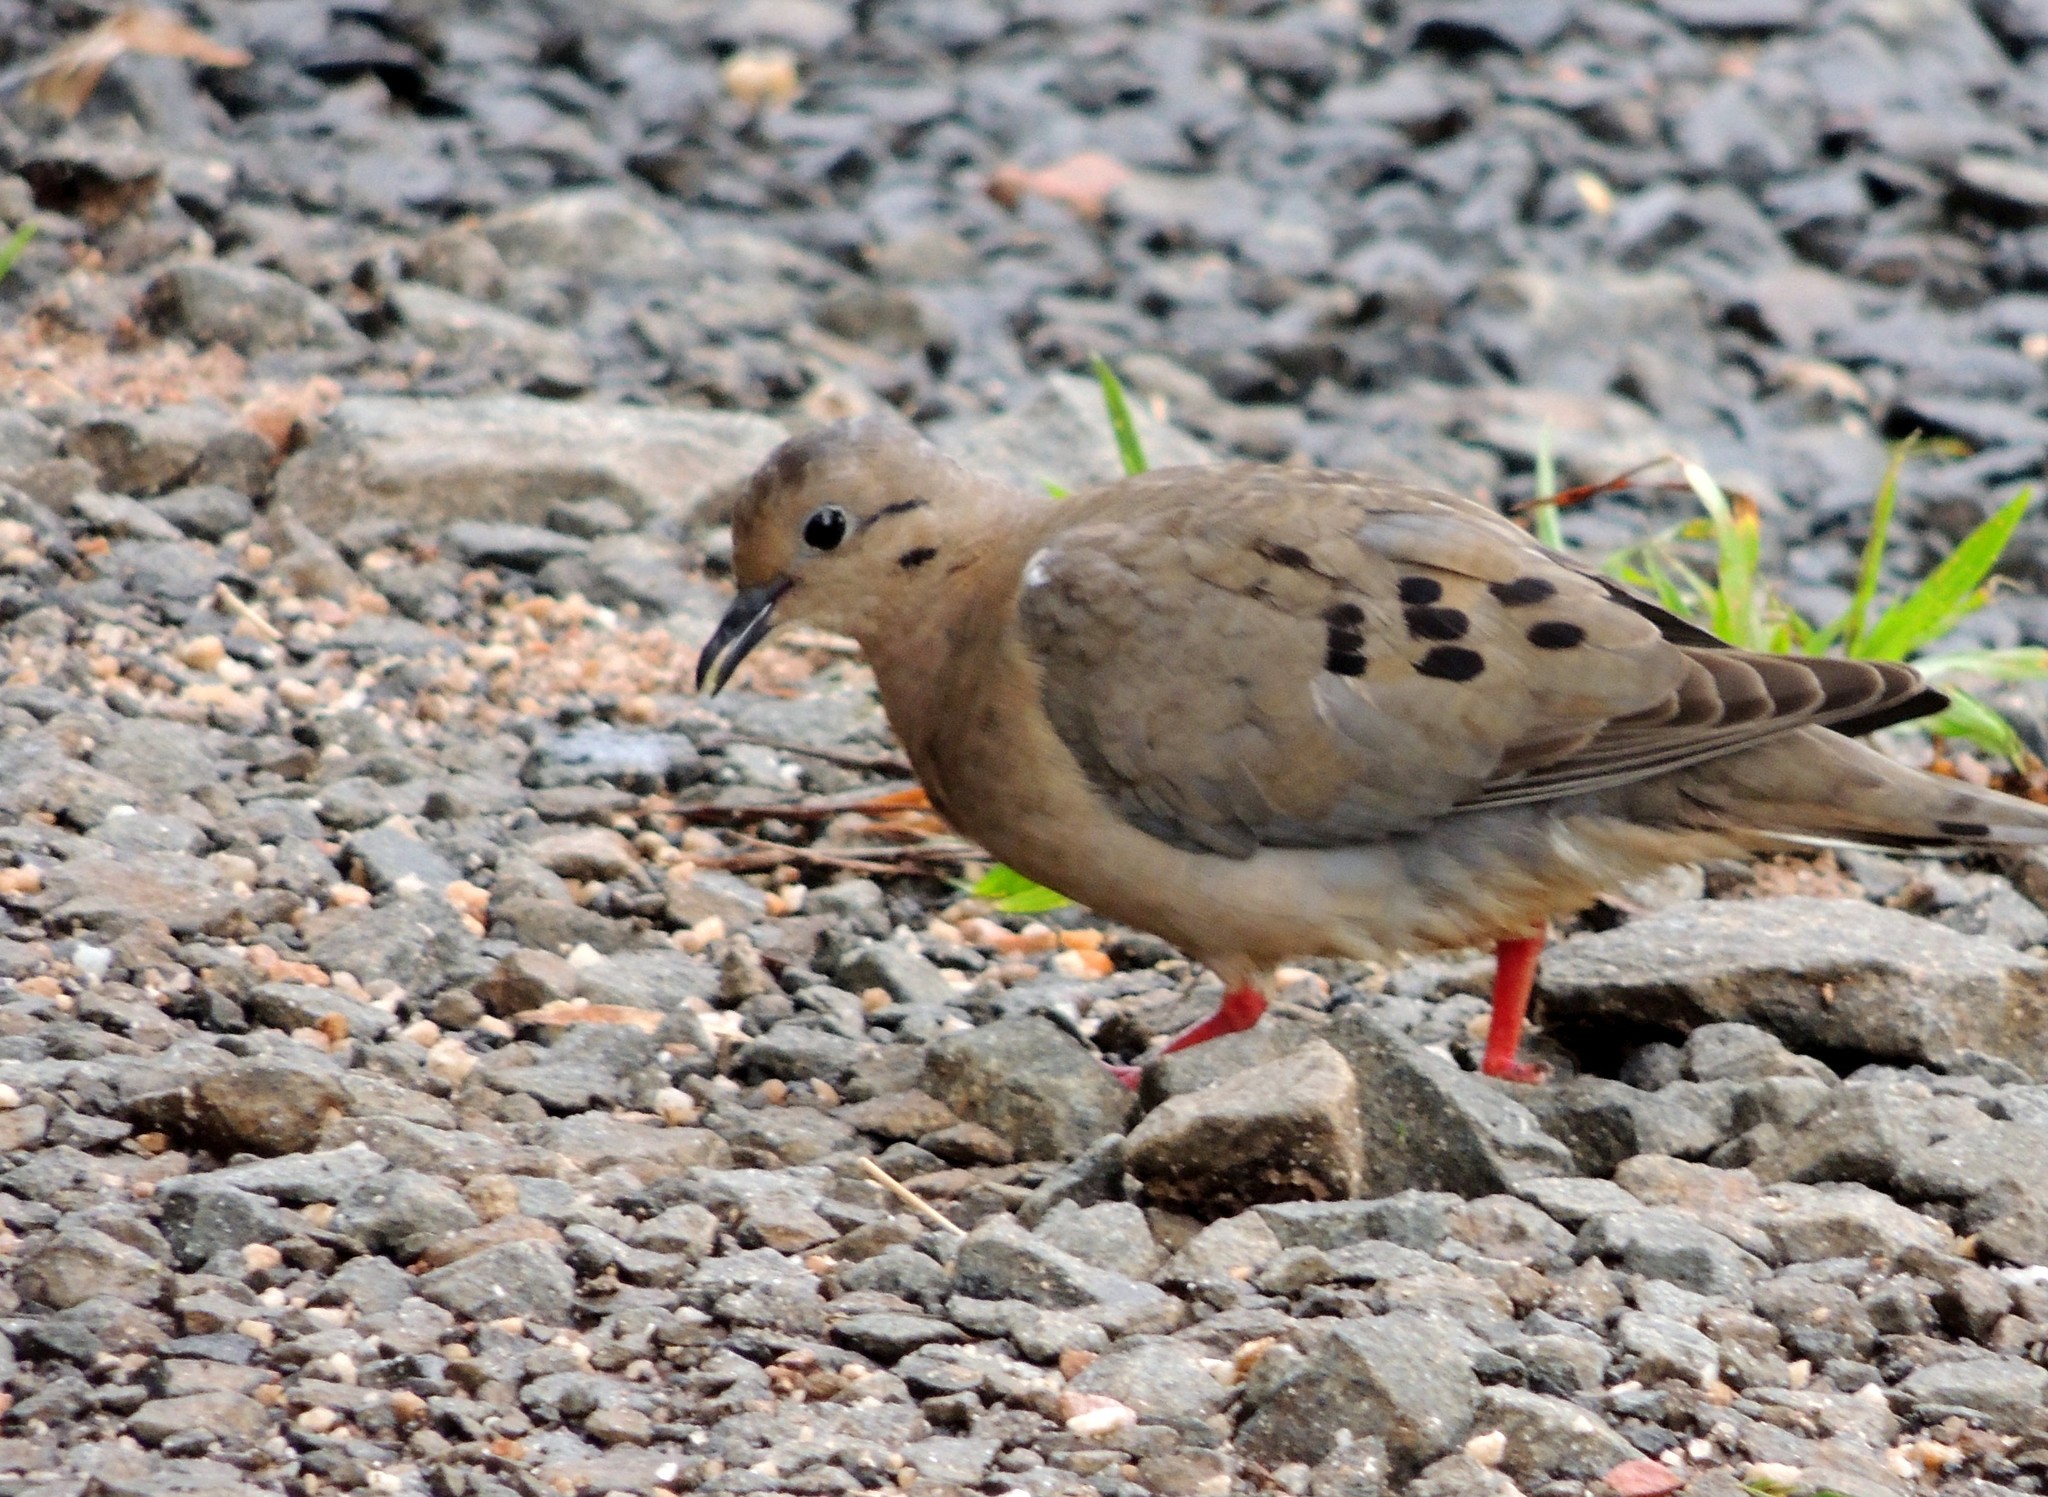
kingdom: Animalia
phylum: Chordata
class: Aves
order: Columbiformes
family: Columbidae
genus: Zenaida
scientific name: Zenaida auriculata
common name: Eared dove
